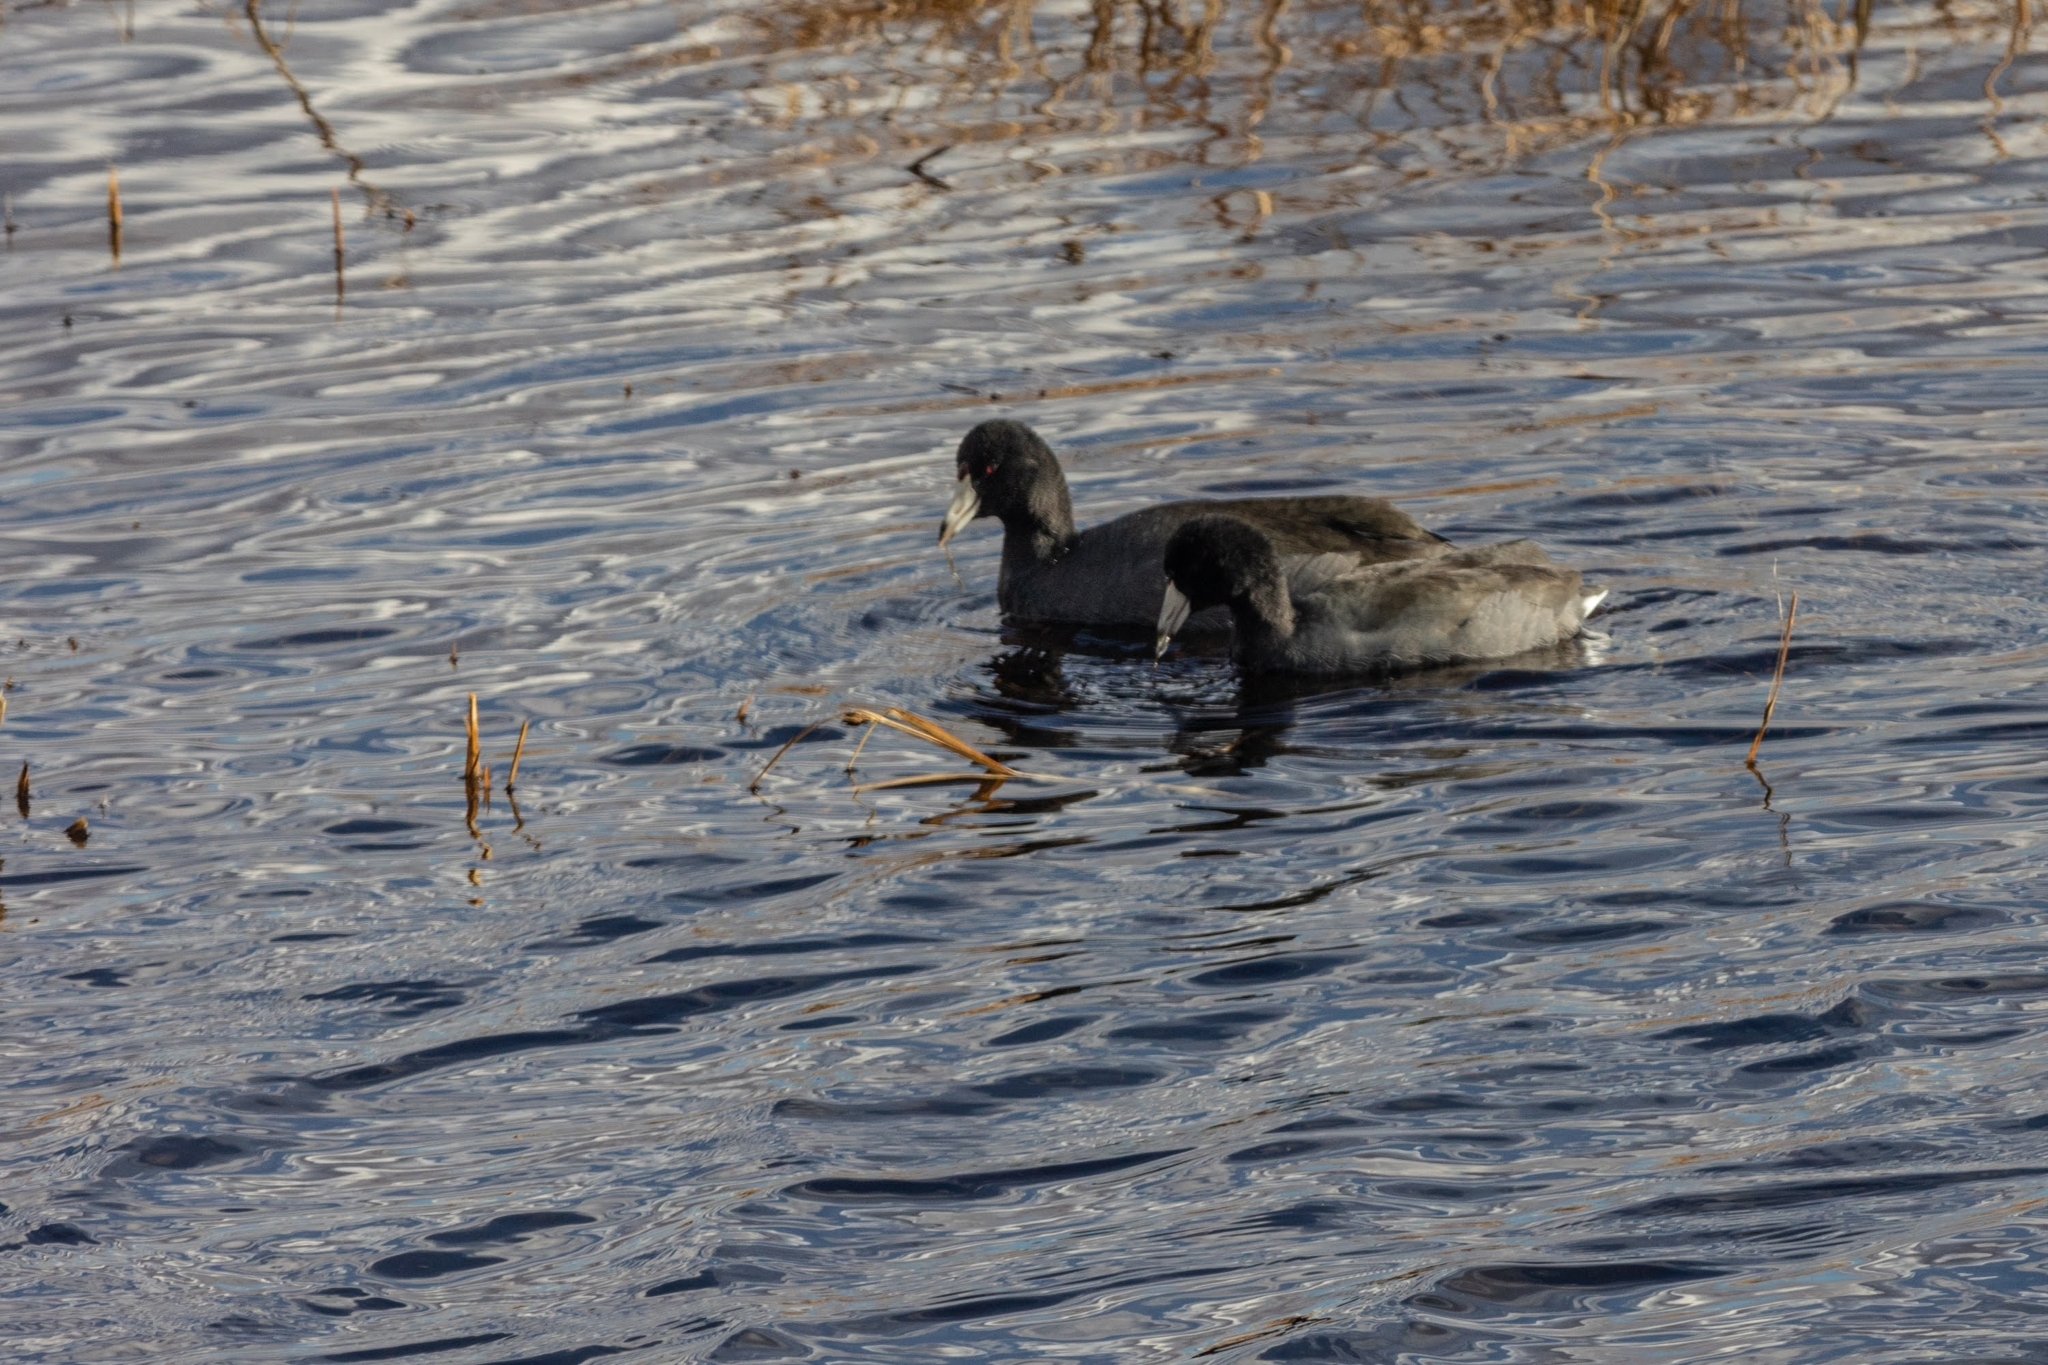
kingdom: Animalia
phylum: Chordata
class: Aves
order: Gruiformes
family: Rallidae
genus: Fulica
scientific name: Fulica americana
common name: American coot
